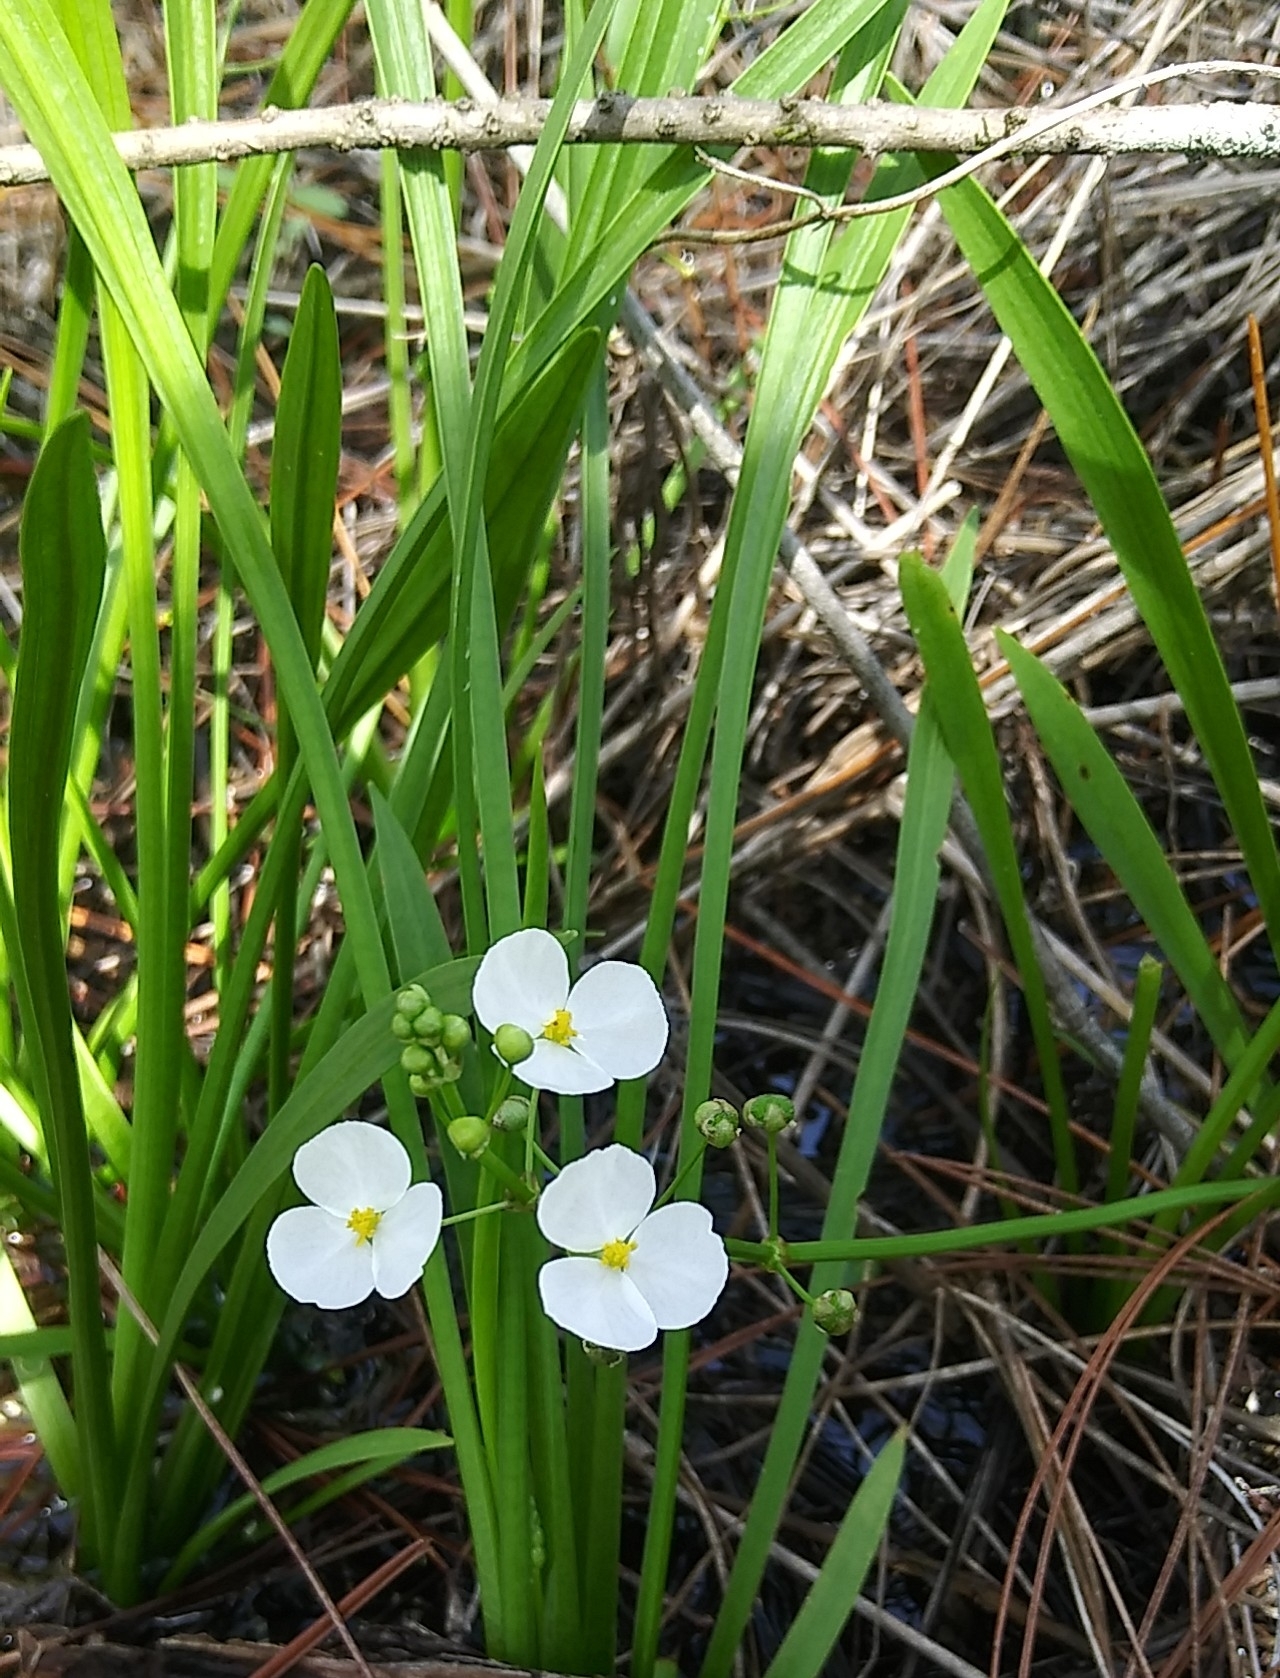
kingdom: Plantae
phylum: Tracheophyta
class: Liliopsida
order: Alismatales
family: Alismataceae
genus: Sagittaria
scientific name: Sagittaria graminea
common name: Grass-leaved arrowhead
